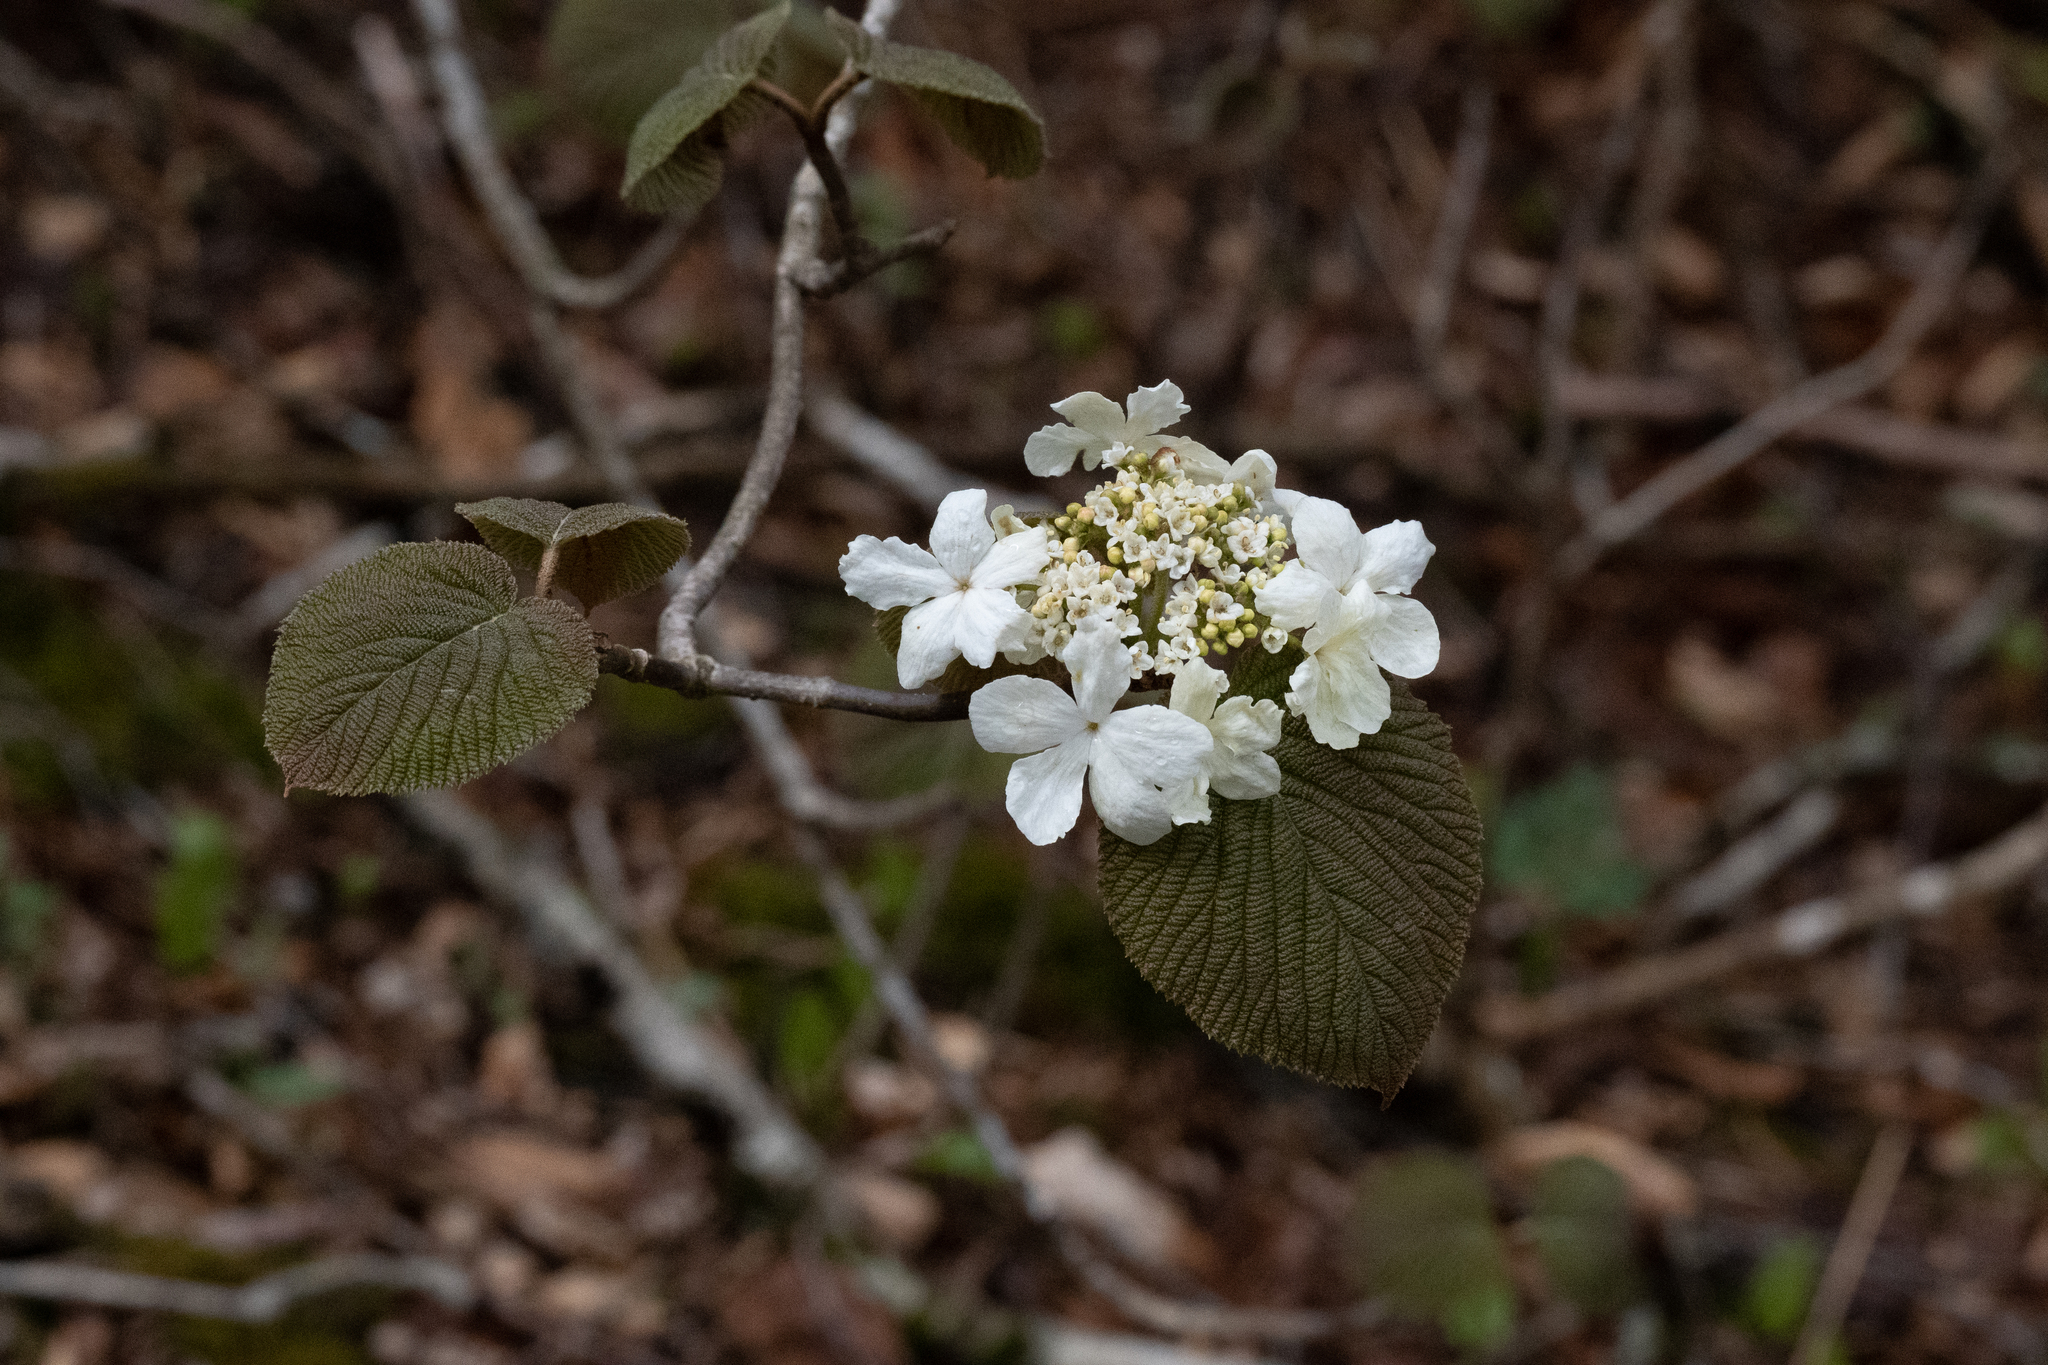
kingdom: Plantae
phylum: Tracheophyta
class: Magnoliopsida
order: Dipsacales
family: Viburnaceae
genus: Viburnum
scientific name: Viburnum lantanoides
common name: Hobblebush
